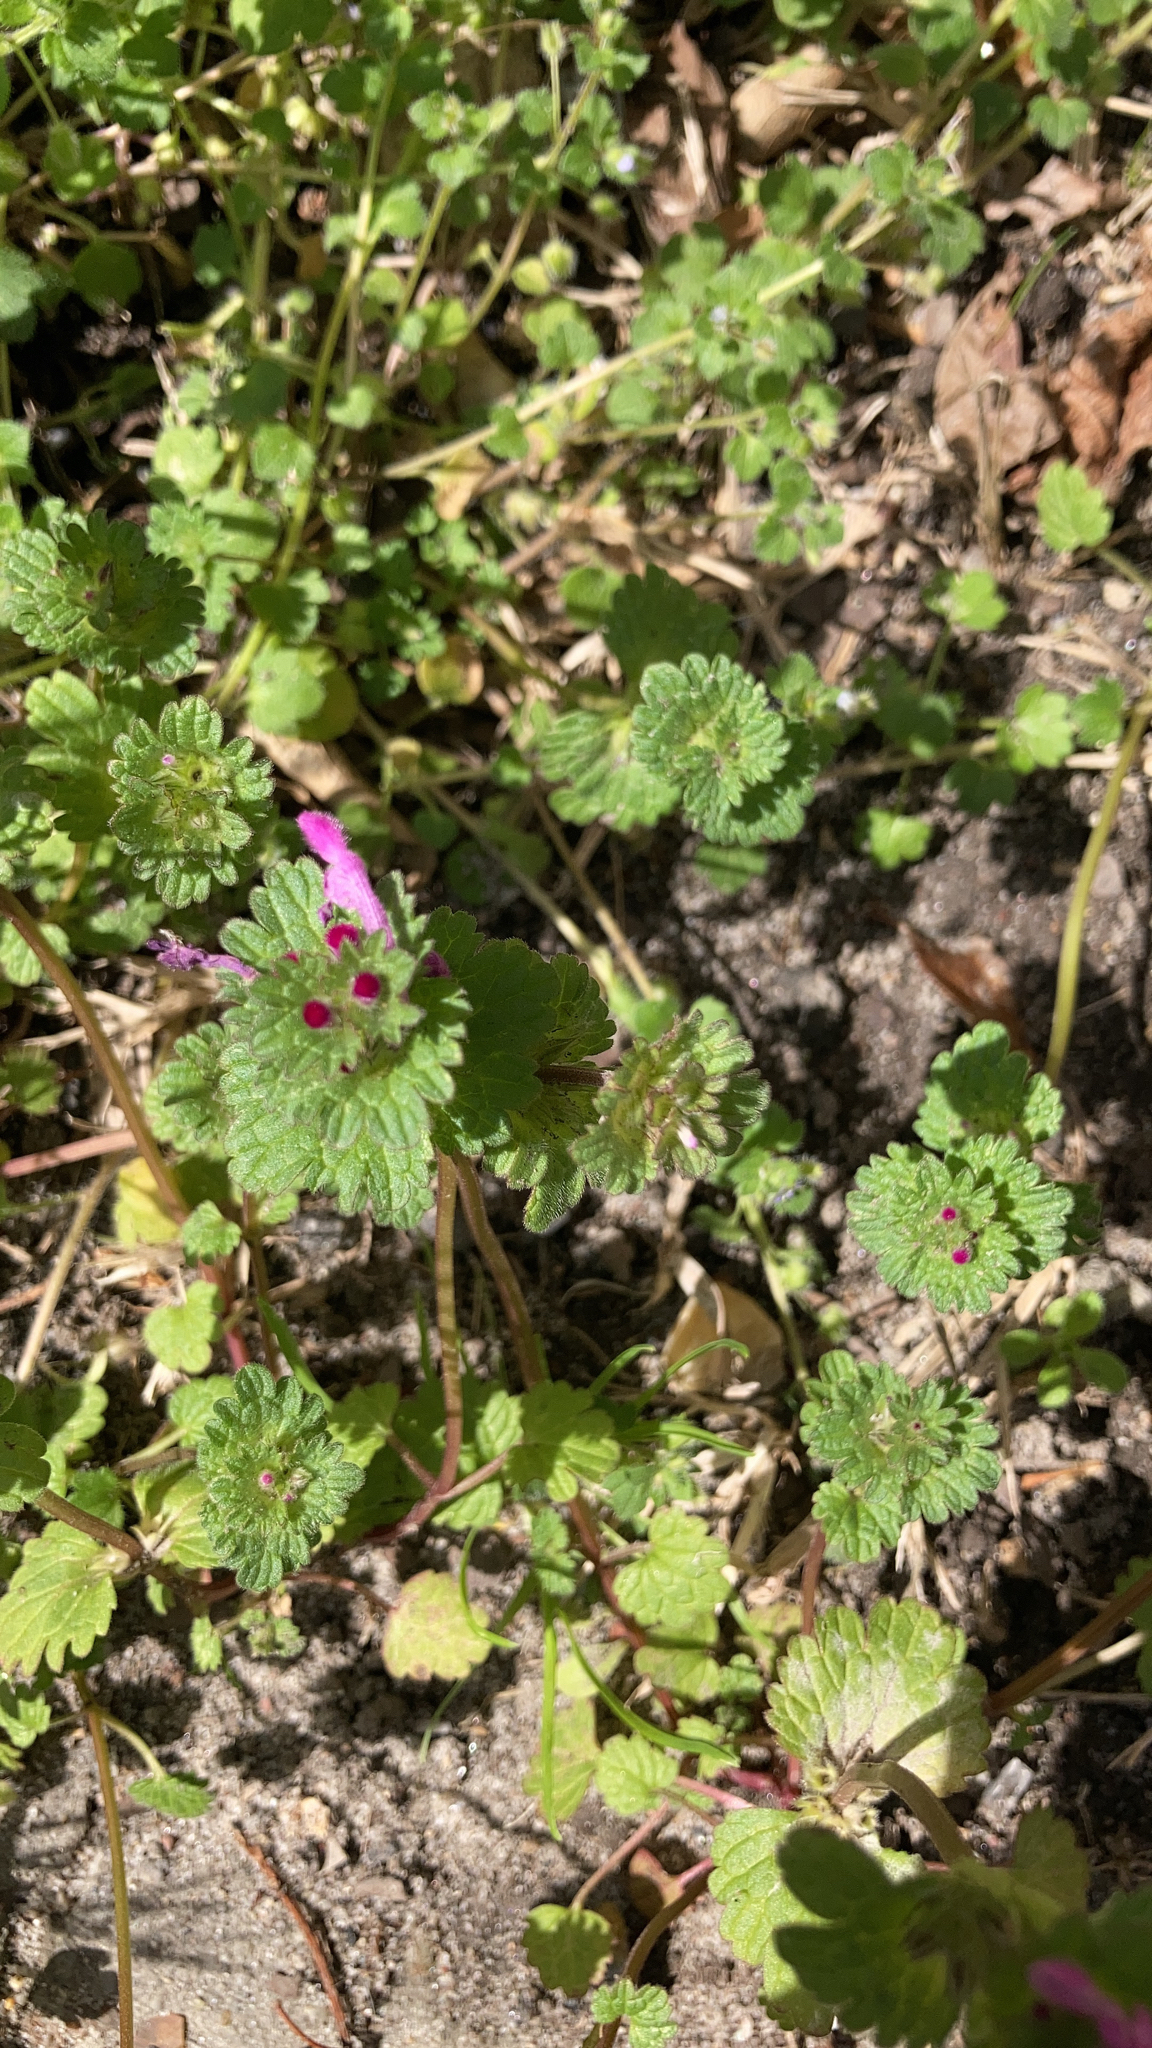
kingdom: Plantae
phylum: Tracheophyta
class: Magnoliopsida
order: Lamiales
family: Lamiaceae
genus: Lamium
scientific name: Lamium amplexicaule
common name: Henbit dead-nettle
